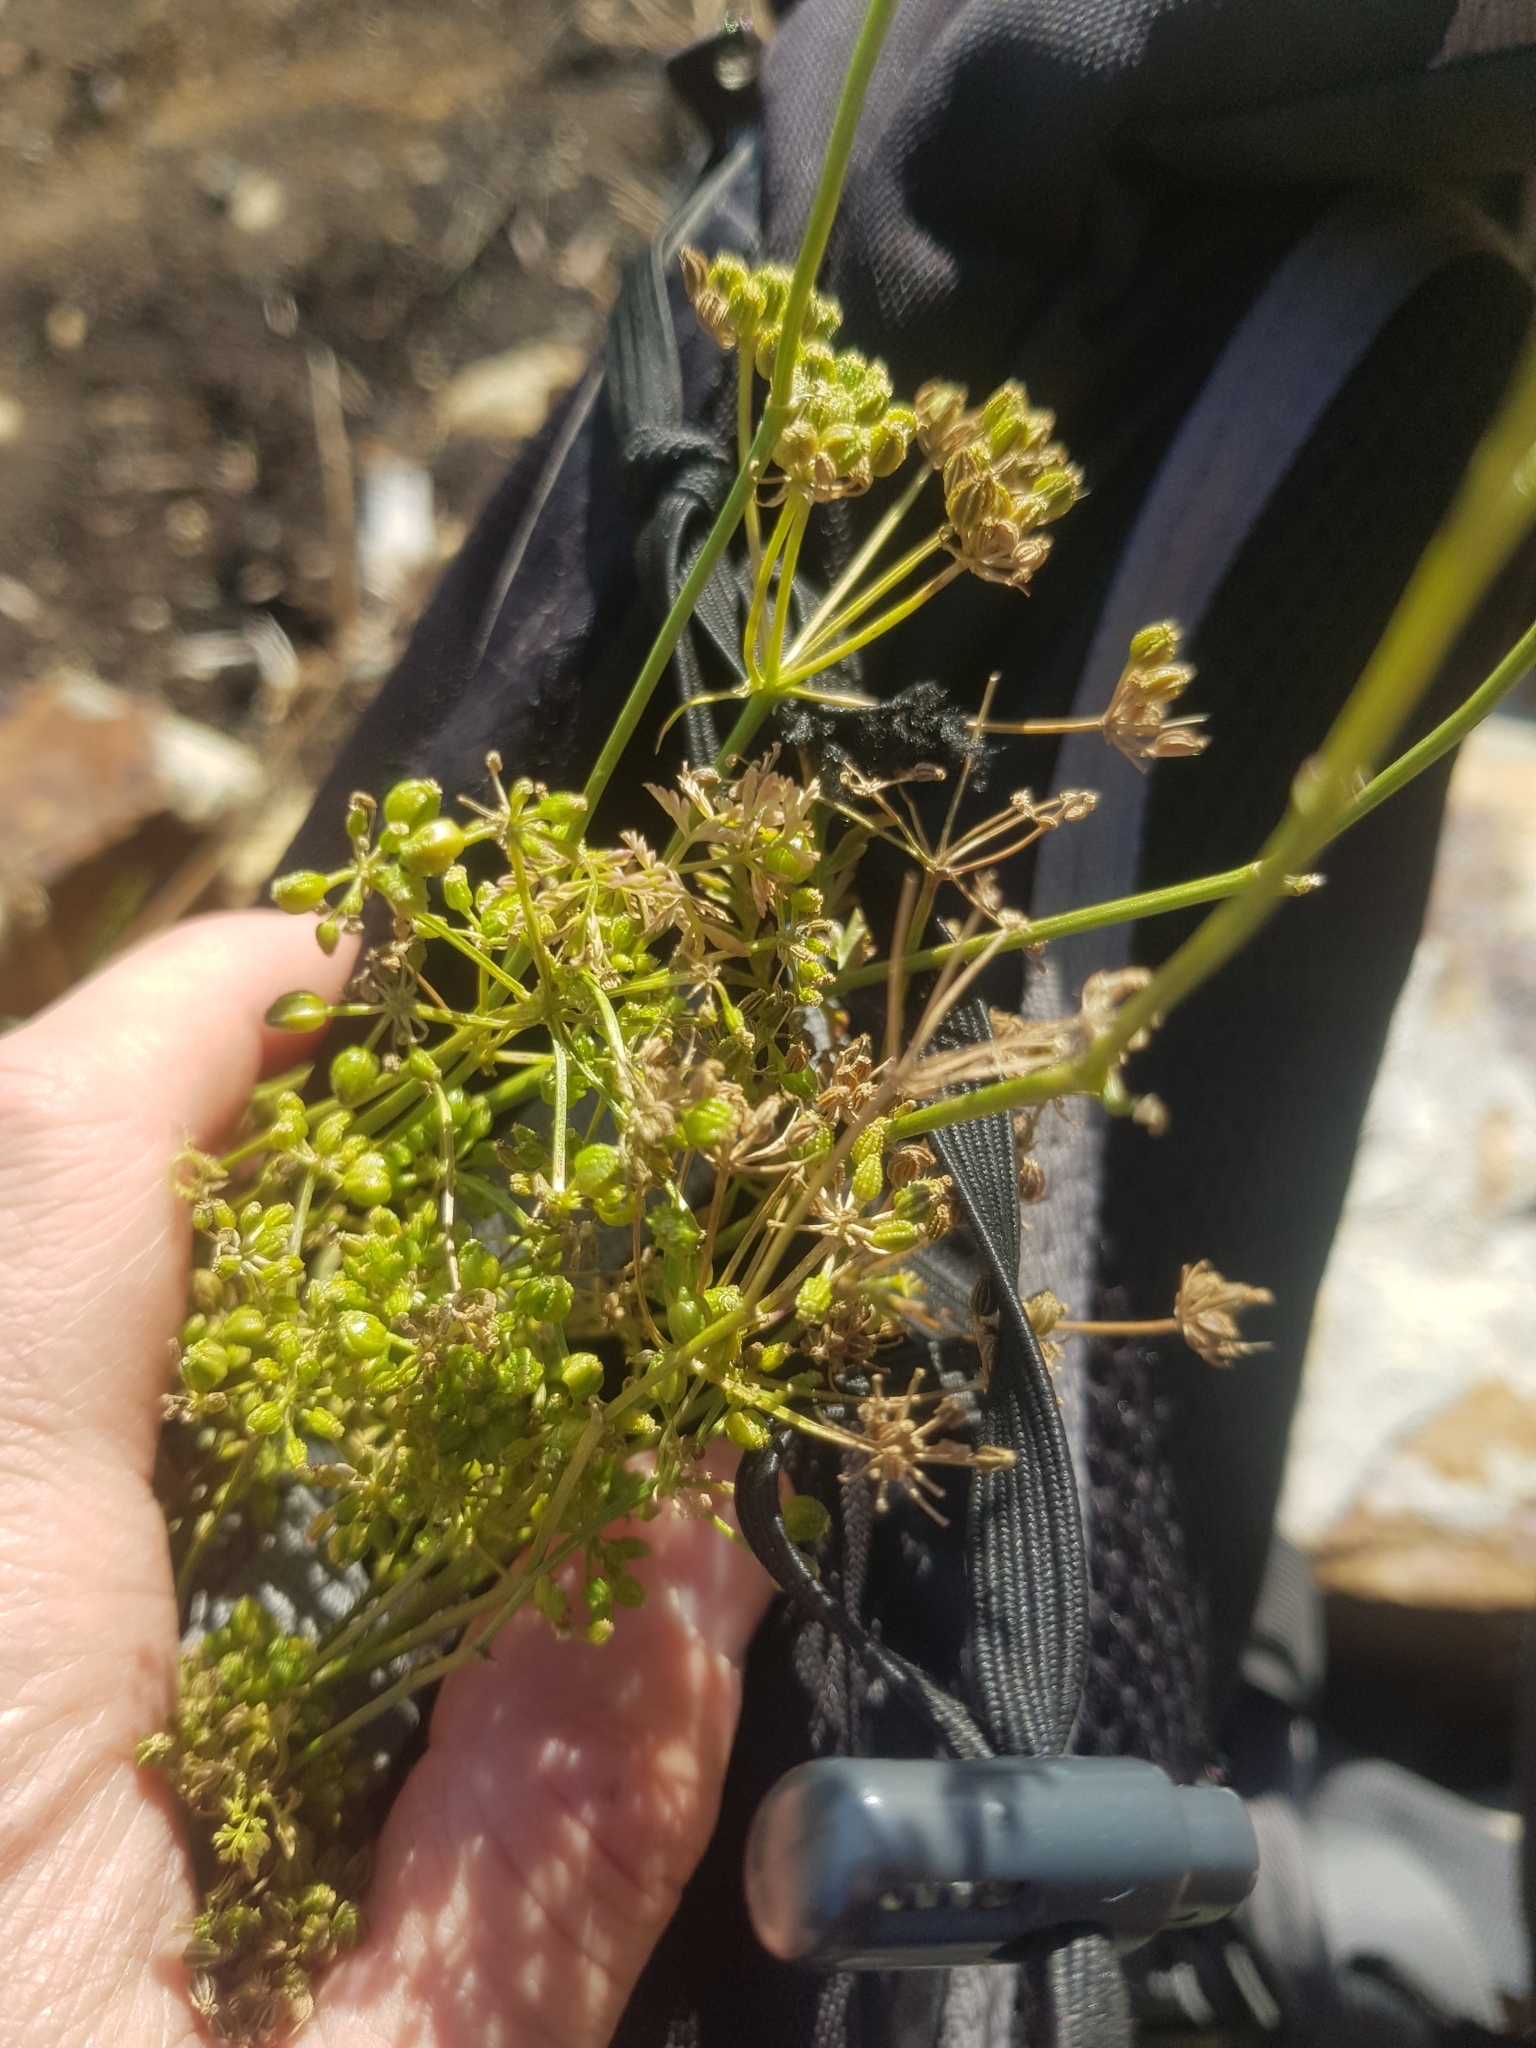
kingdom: Plantae
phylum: Tracheophyta
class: Magnoliopsida
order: Apiales
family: Apiaceae
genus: Conium
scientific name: Conium maculatum
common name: Hemlock
